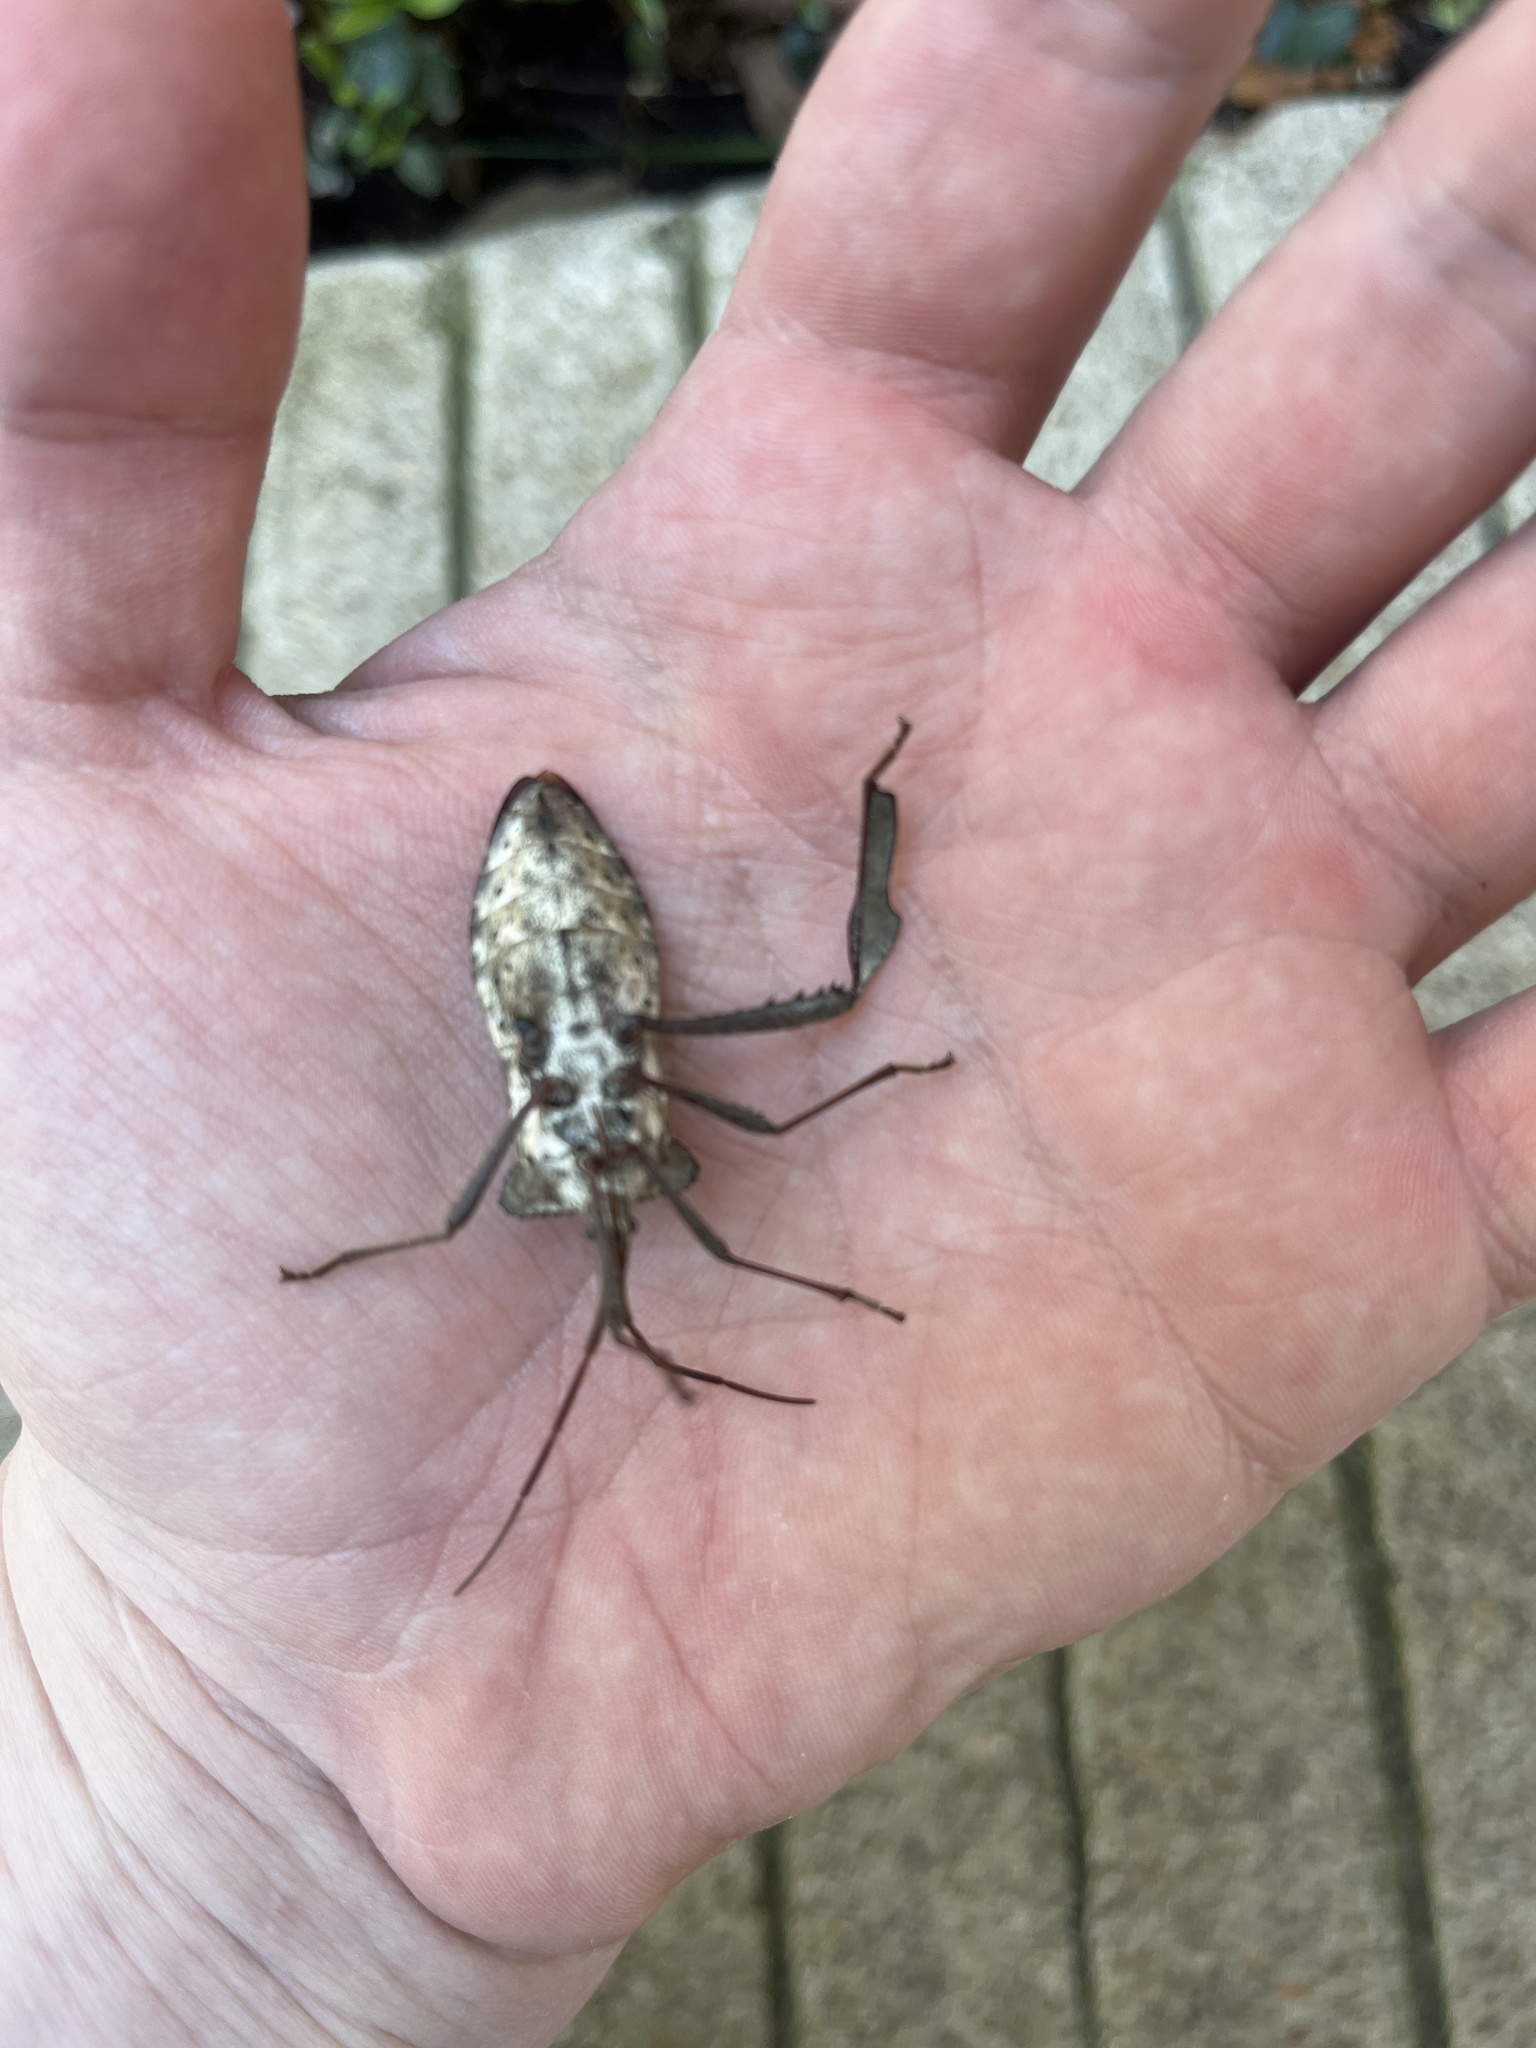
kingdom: Animalia
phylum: Arthropoda
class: Insecta
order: Hemiptera
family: Coreidae
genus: Acanthocephala
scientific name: Acanthocephala declivis
